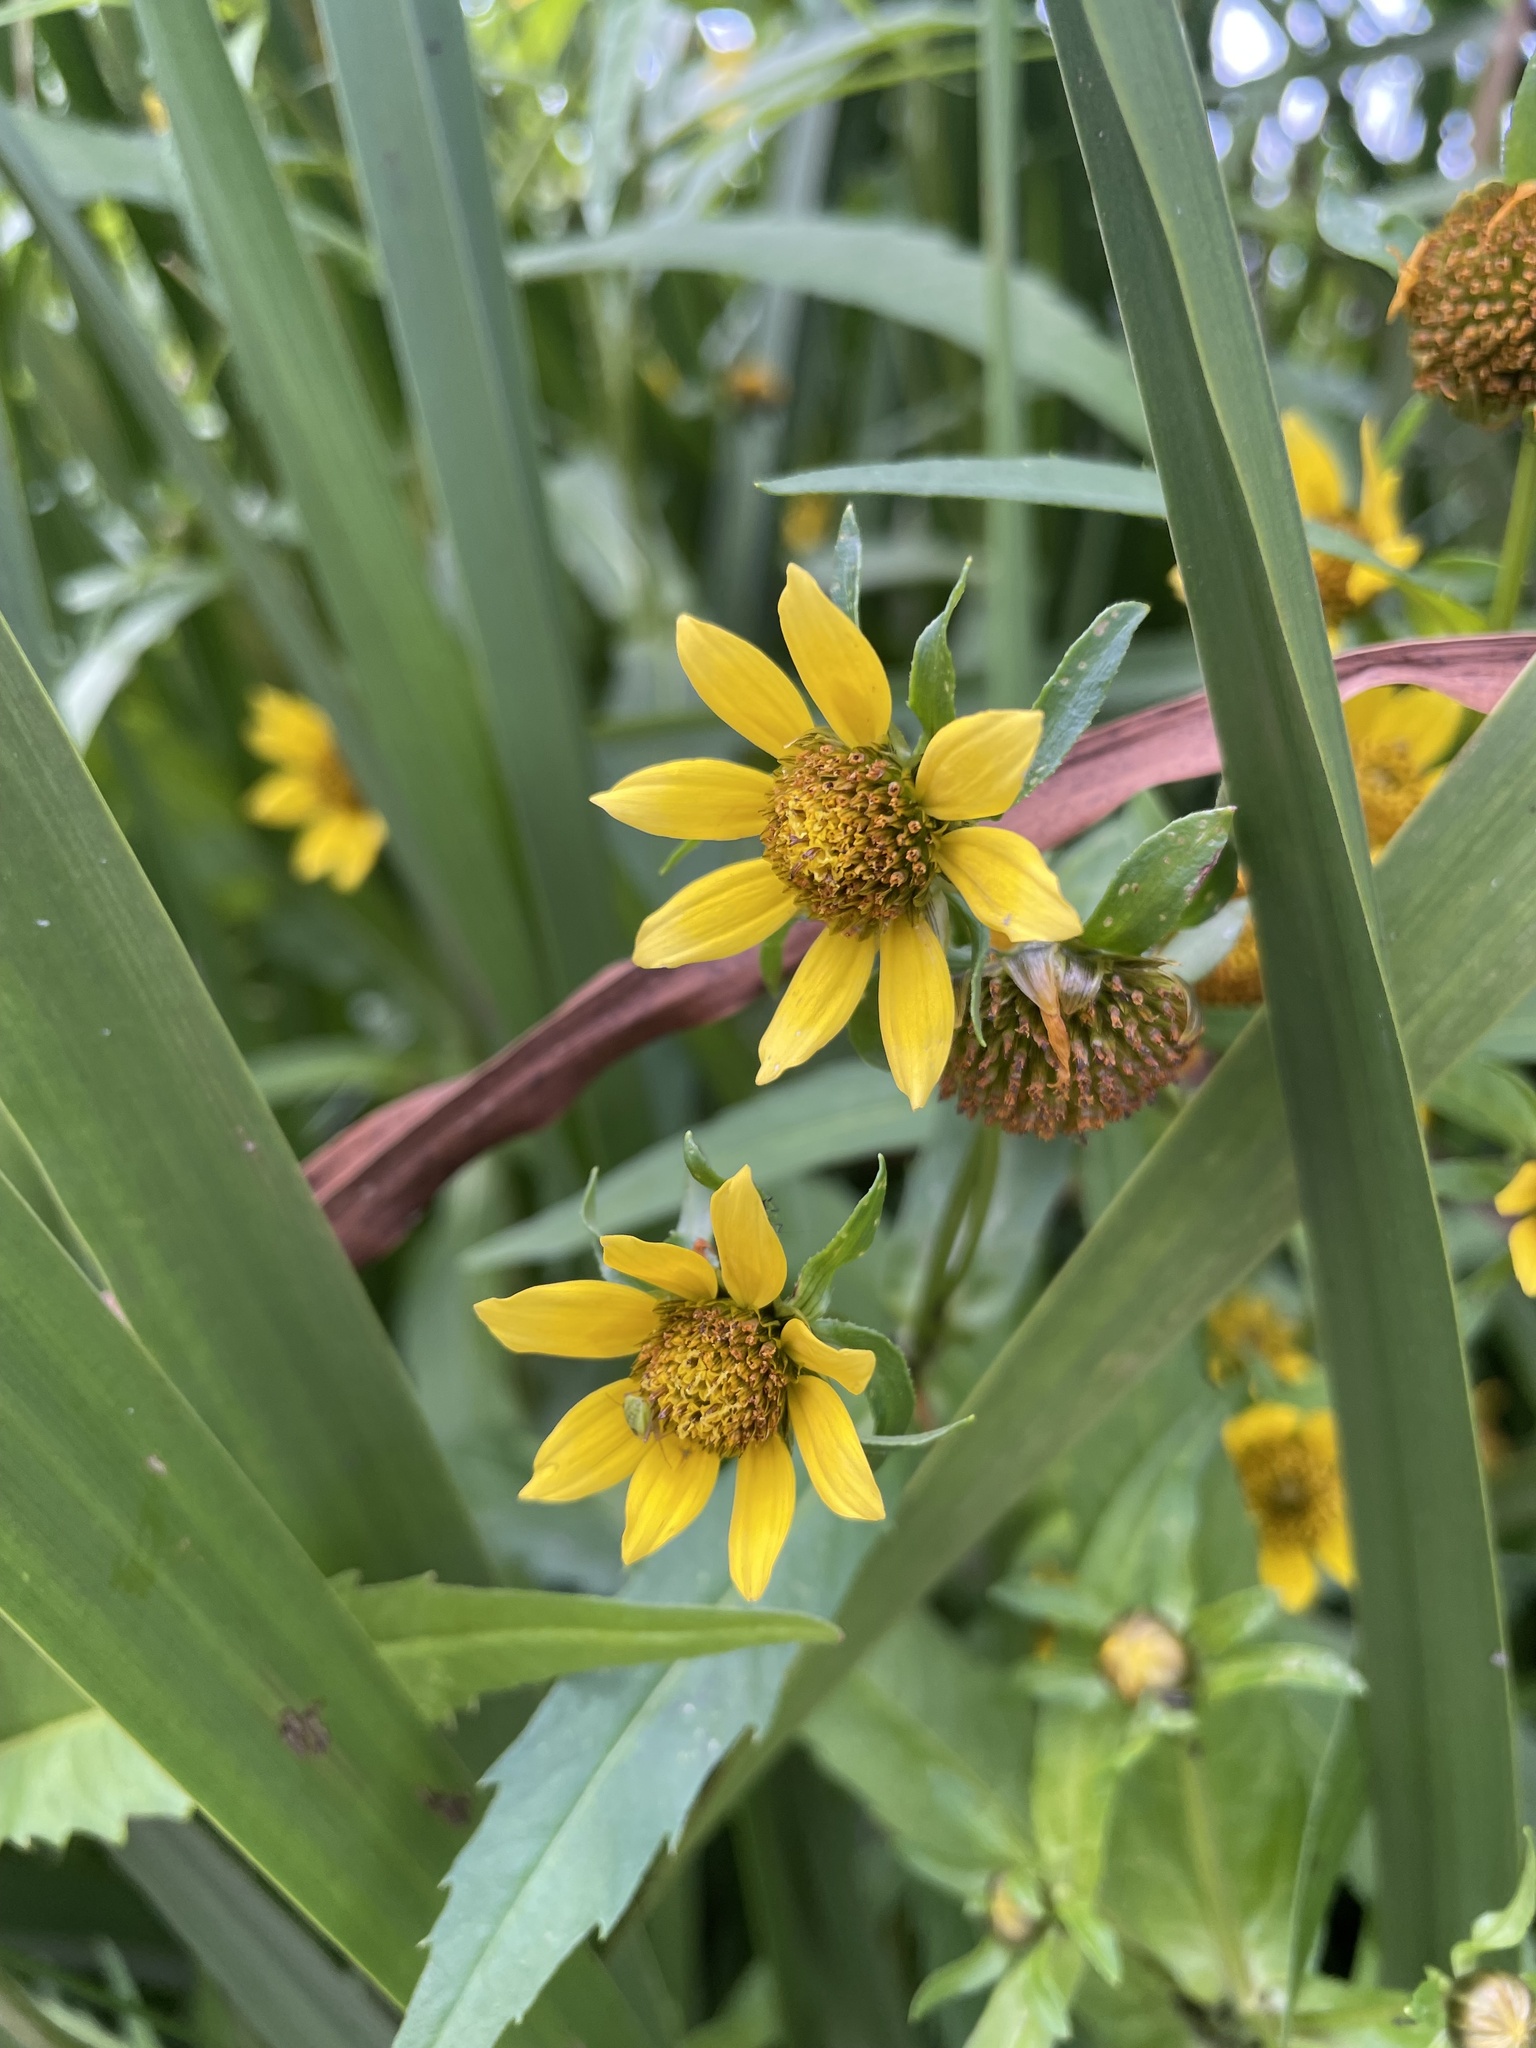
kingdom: Plantae
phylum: Tracheophyta
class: Magnoliopsida
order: Asterales
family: Asteraceae
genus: Bidens
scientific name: Bidens cernua
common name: Nodding bur-marigold
